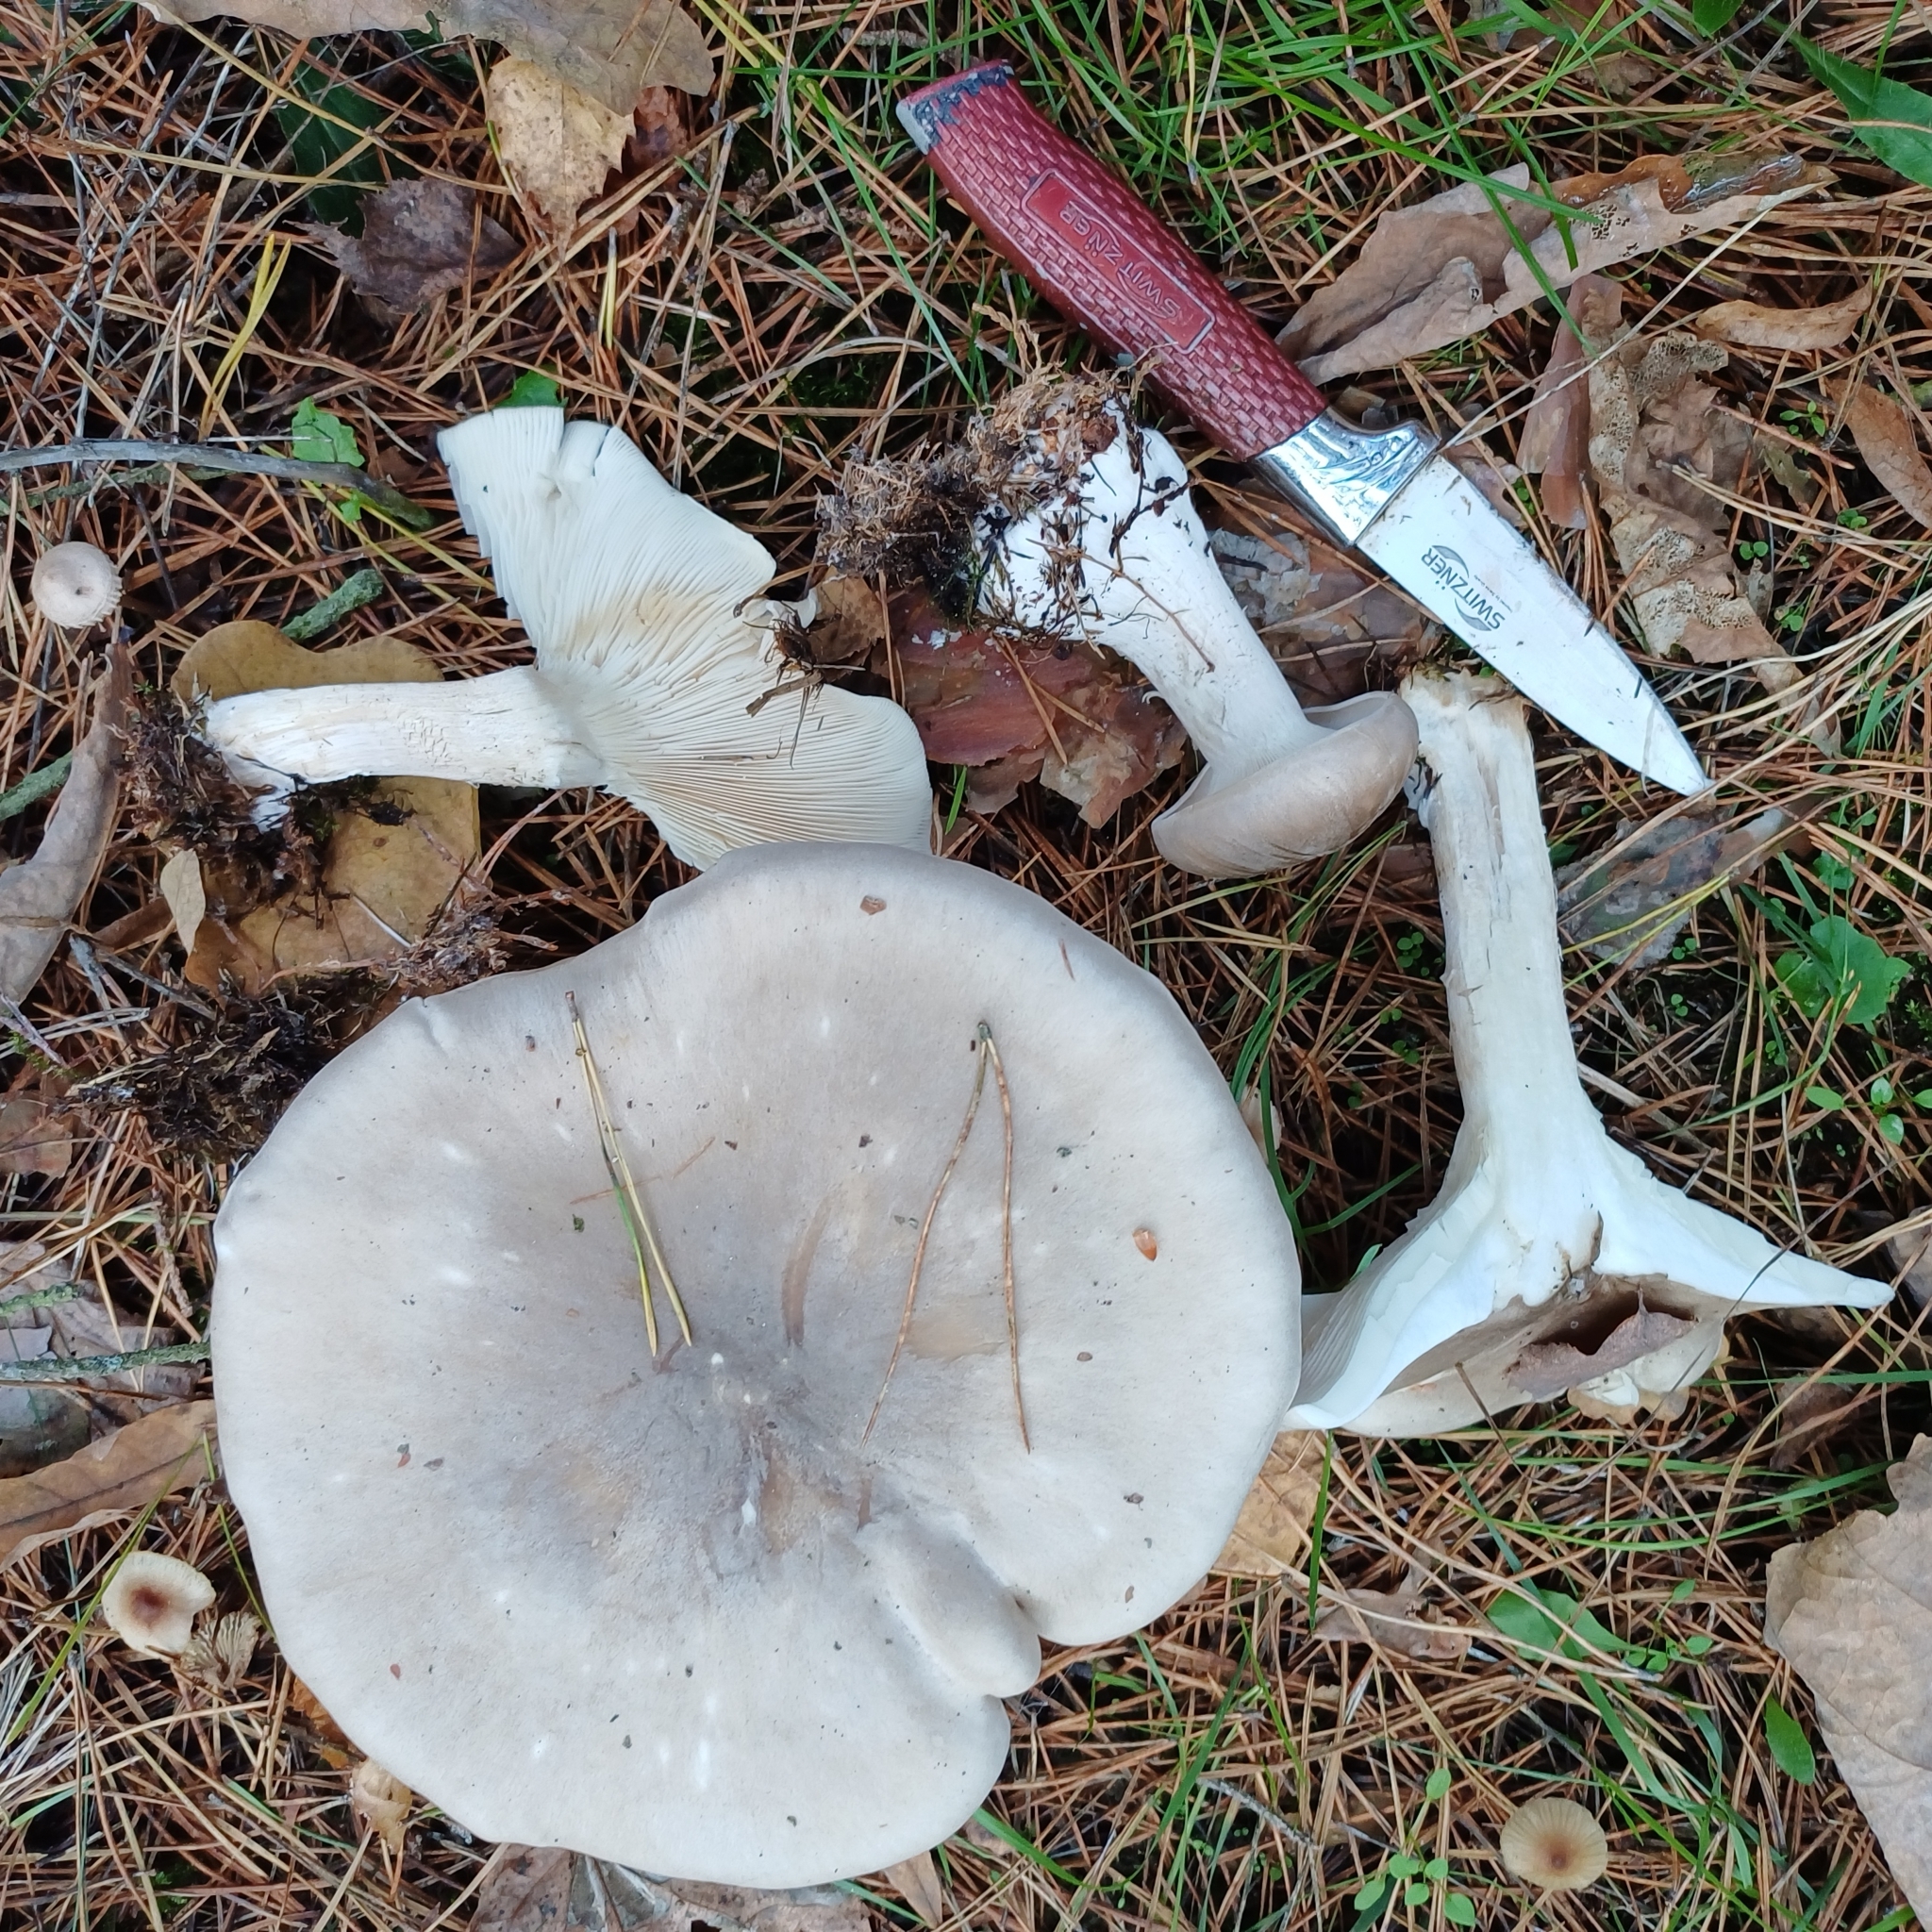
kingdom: Fungi
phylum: Basidiomycota
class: Agaricomycetes
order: Agaricales
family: Tricholomataceae
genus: Clitocybe
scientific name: Clitocybe nebularis
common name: Clouded agaric
